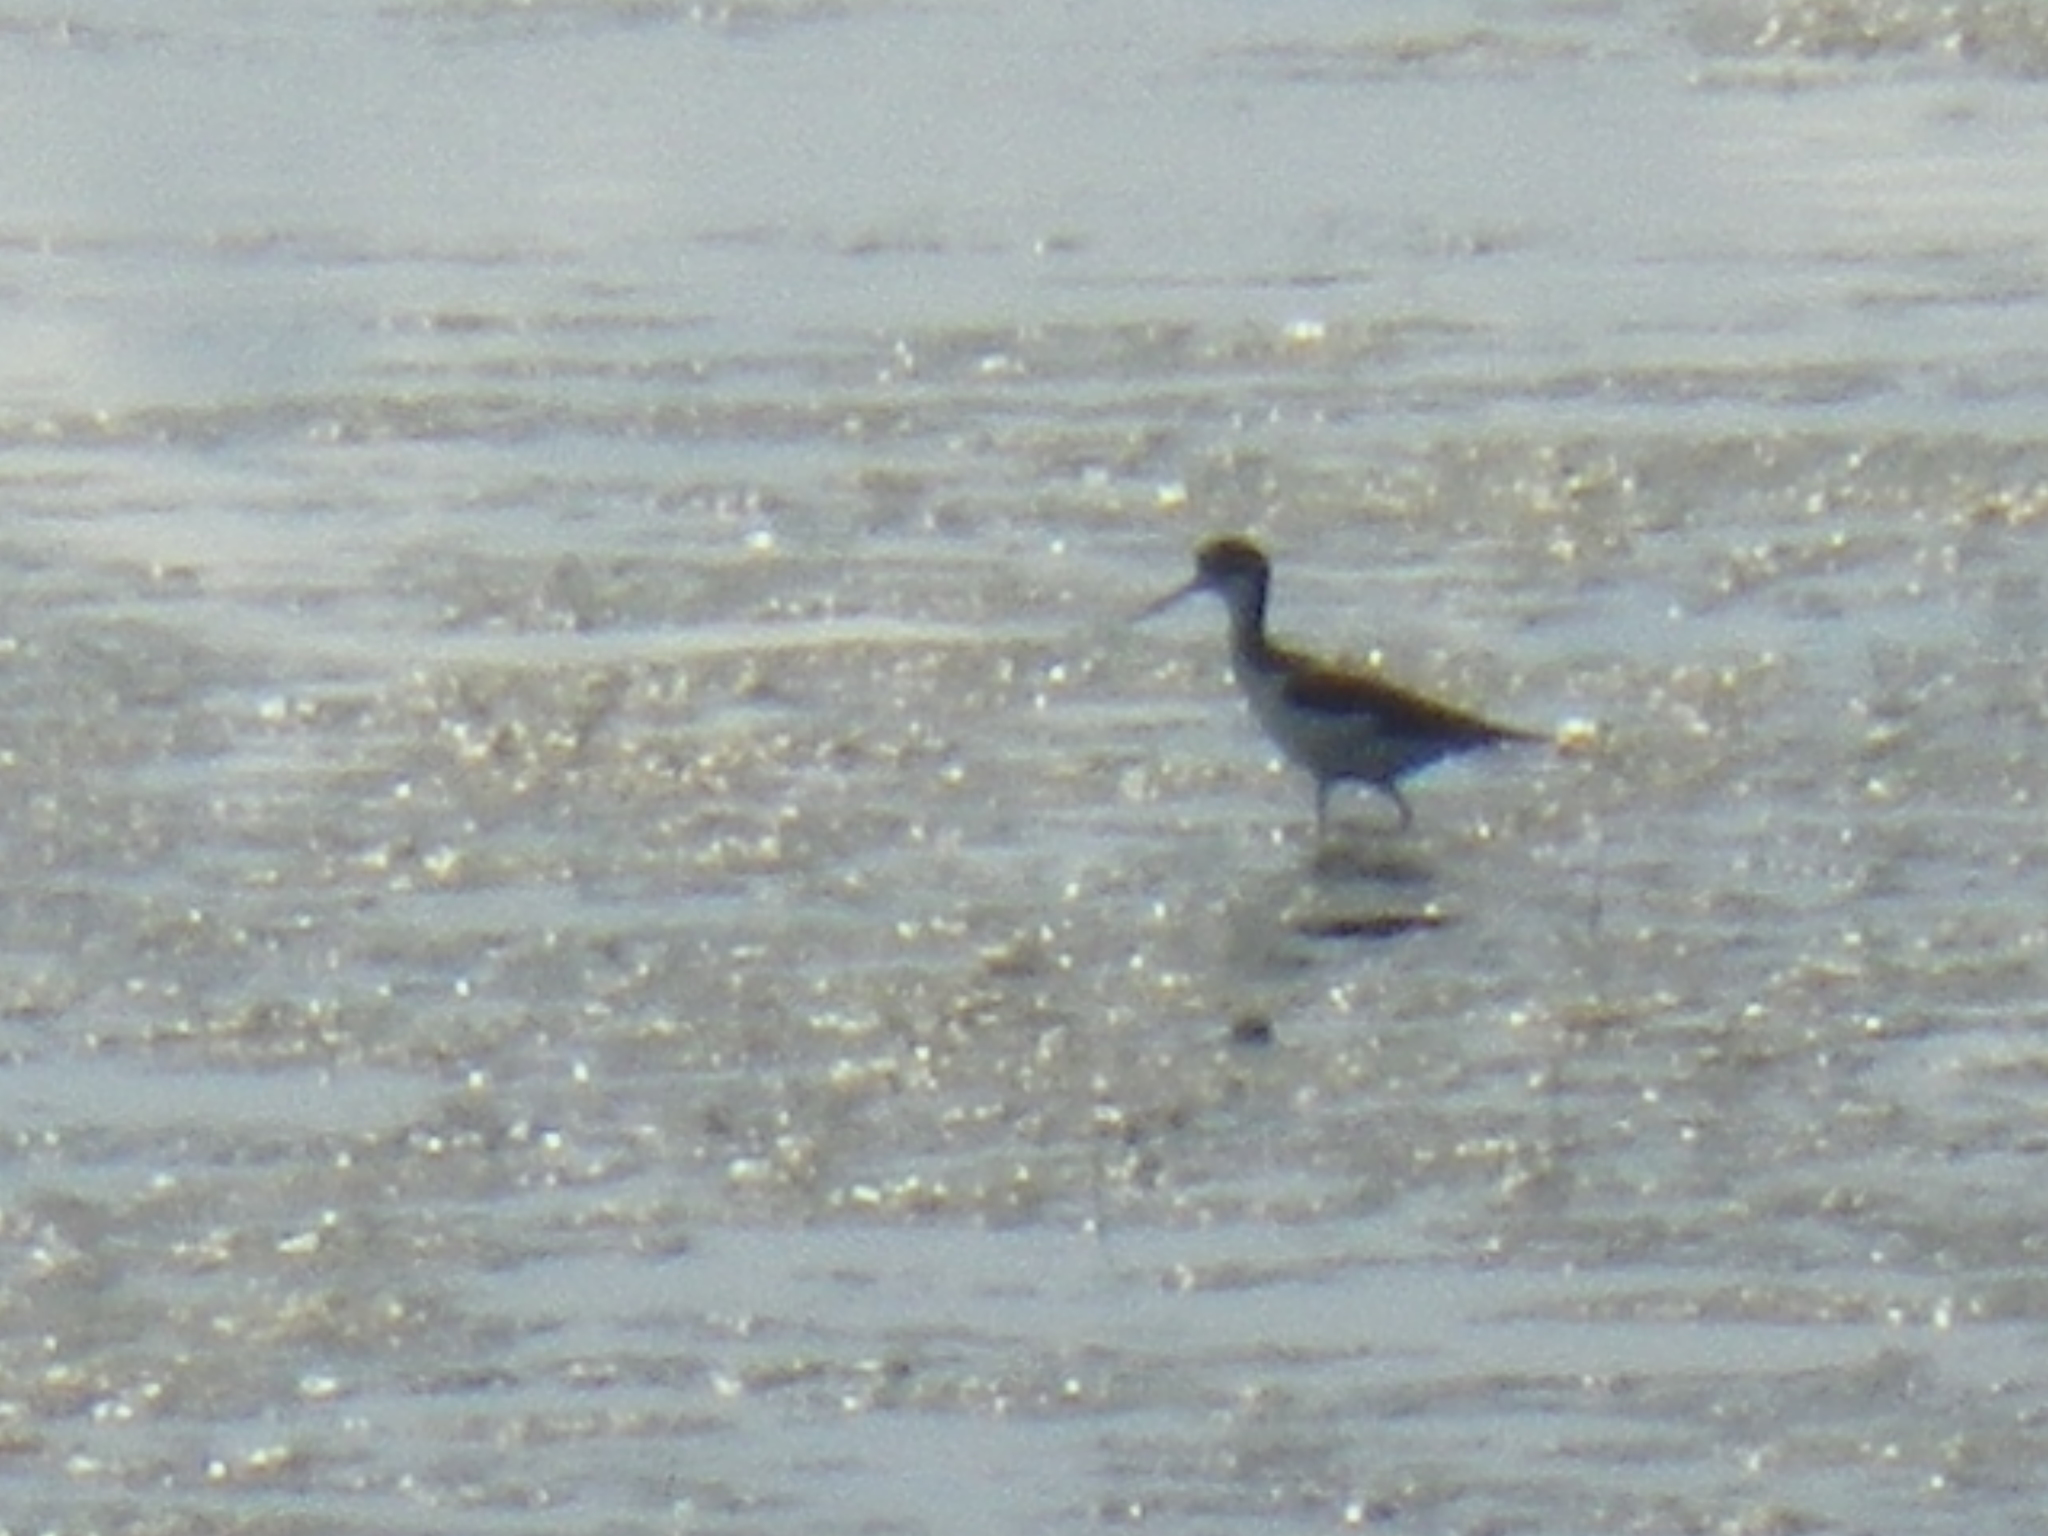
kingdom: Animalia
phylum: Chordata
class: Aves
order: Charadriiformes
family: Recurvirostridae
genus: Himantopus
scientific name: Himantopus mexicanus
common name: Black-necked stilt
